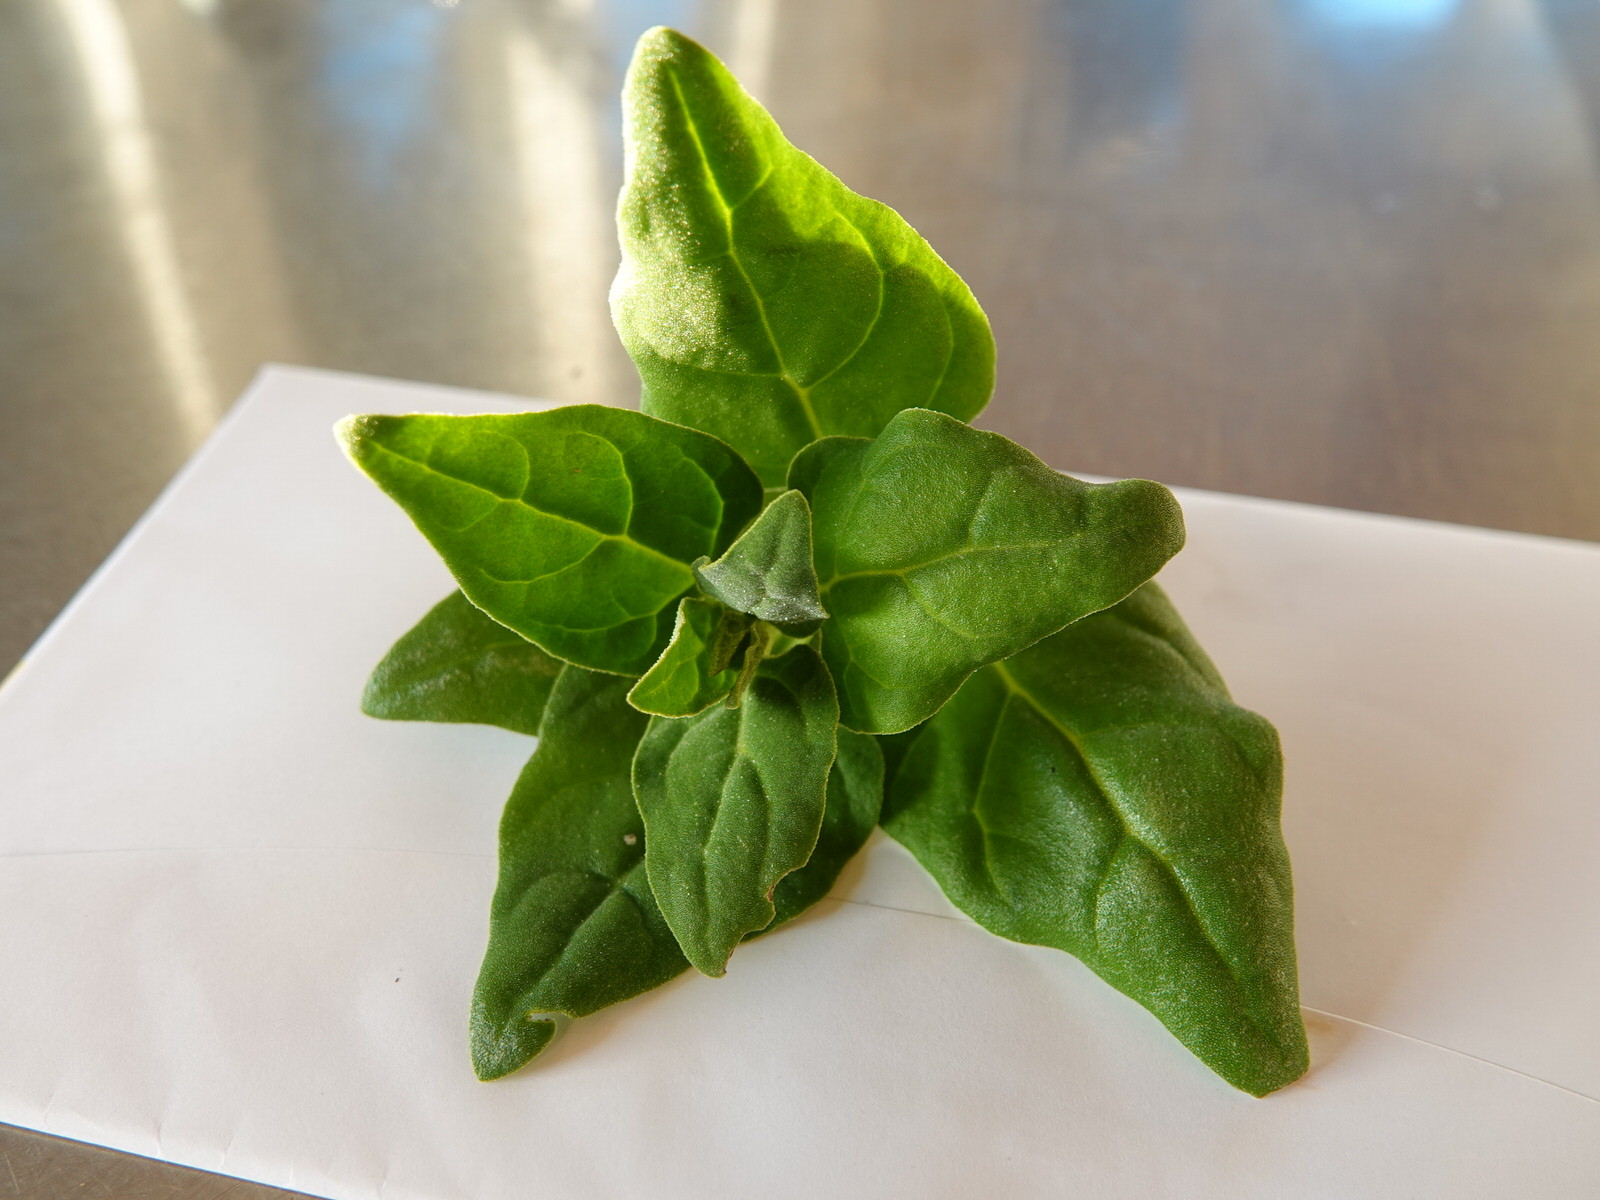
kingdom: Plantae
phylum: Tracheophyta
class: Magnoliopsida
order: Caryophyllales
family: Aizoaceae
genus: Tetragonia
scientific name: Tetragonia tetragonoides
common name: New zealand-spinach
